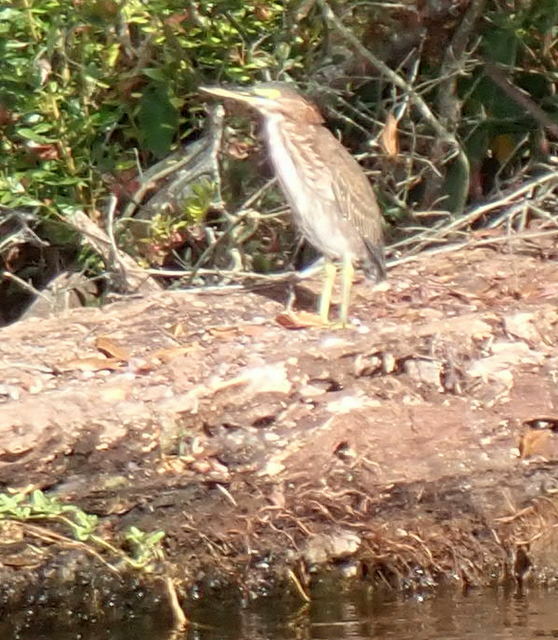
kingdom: Animalia
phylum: Chordata
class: Aves
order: Pelecaniformes
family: Ardeidae
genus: Butorides
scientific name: Butorides virescens
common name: Green heron
